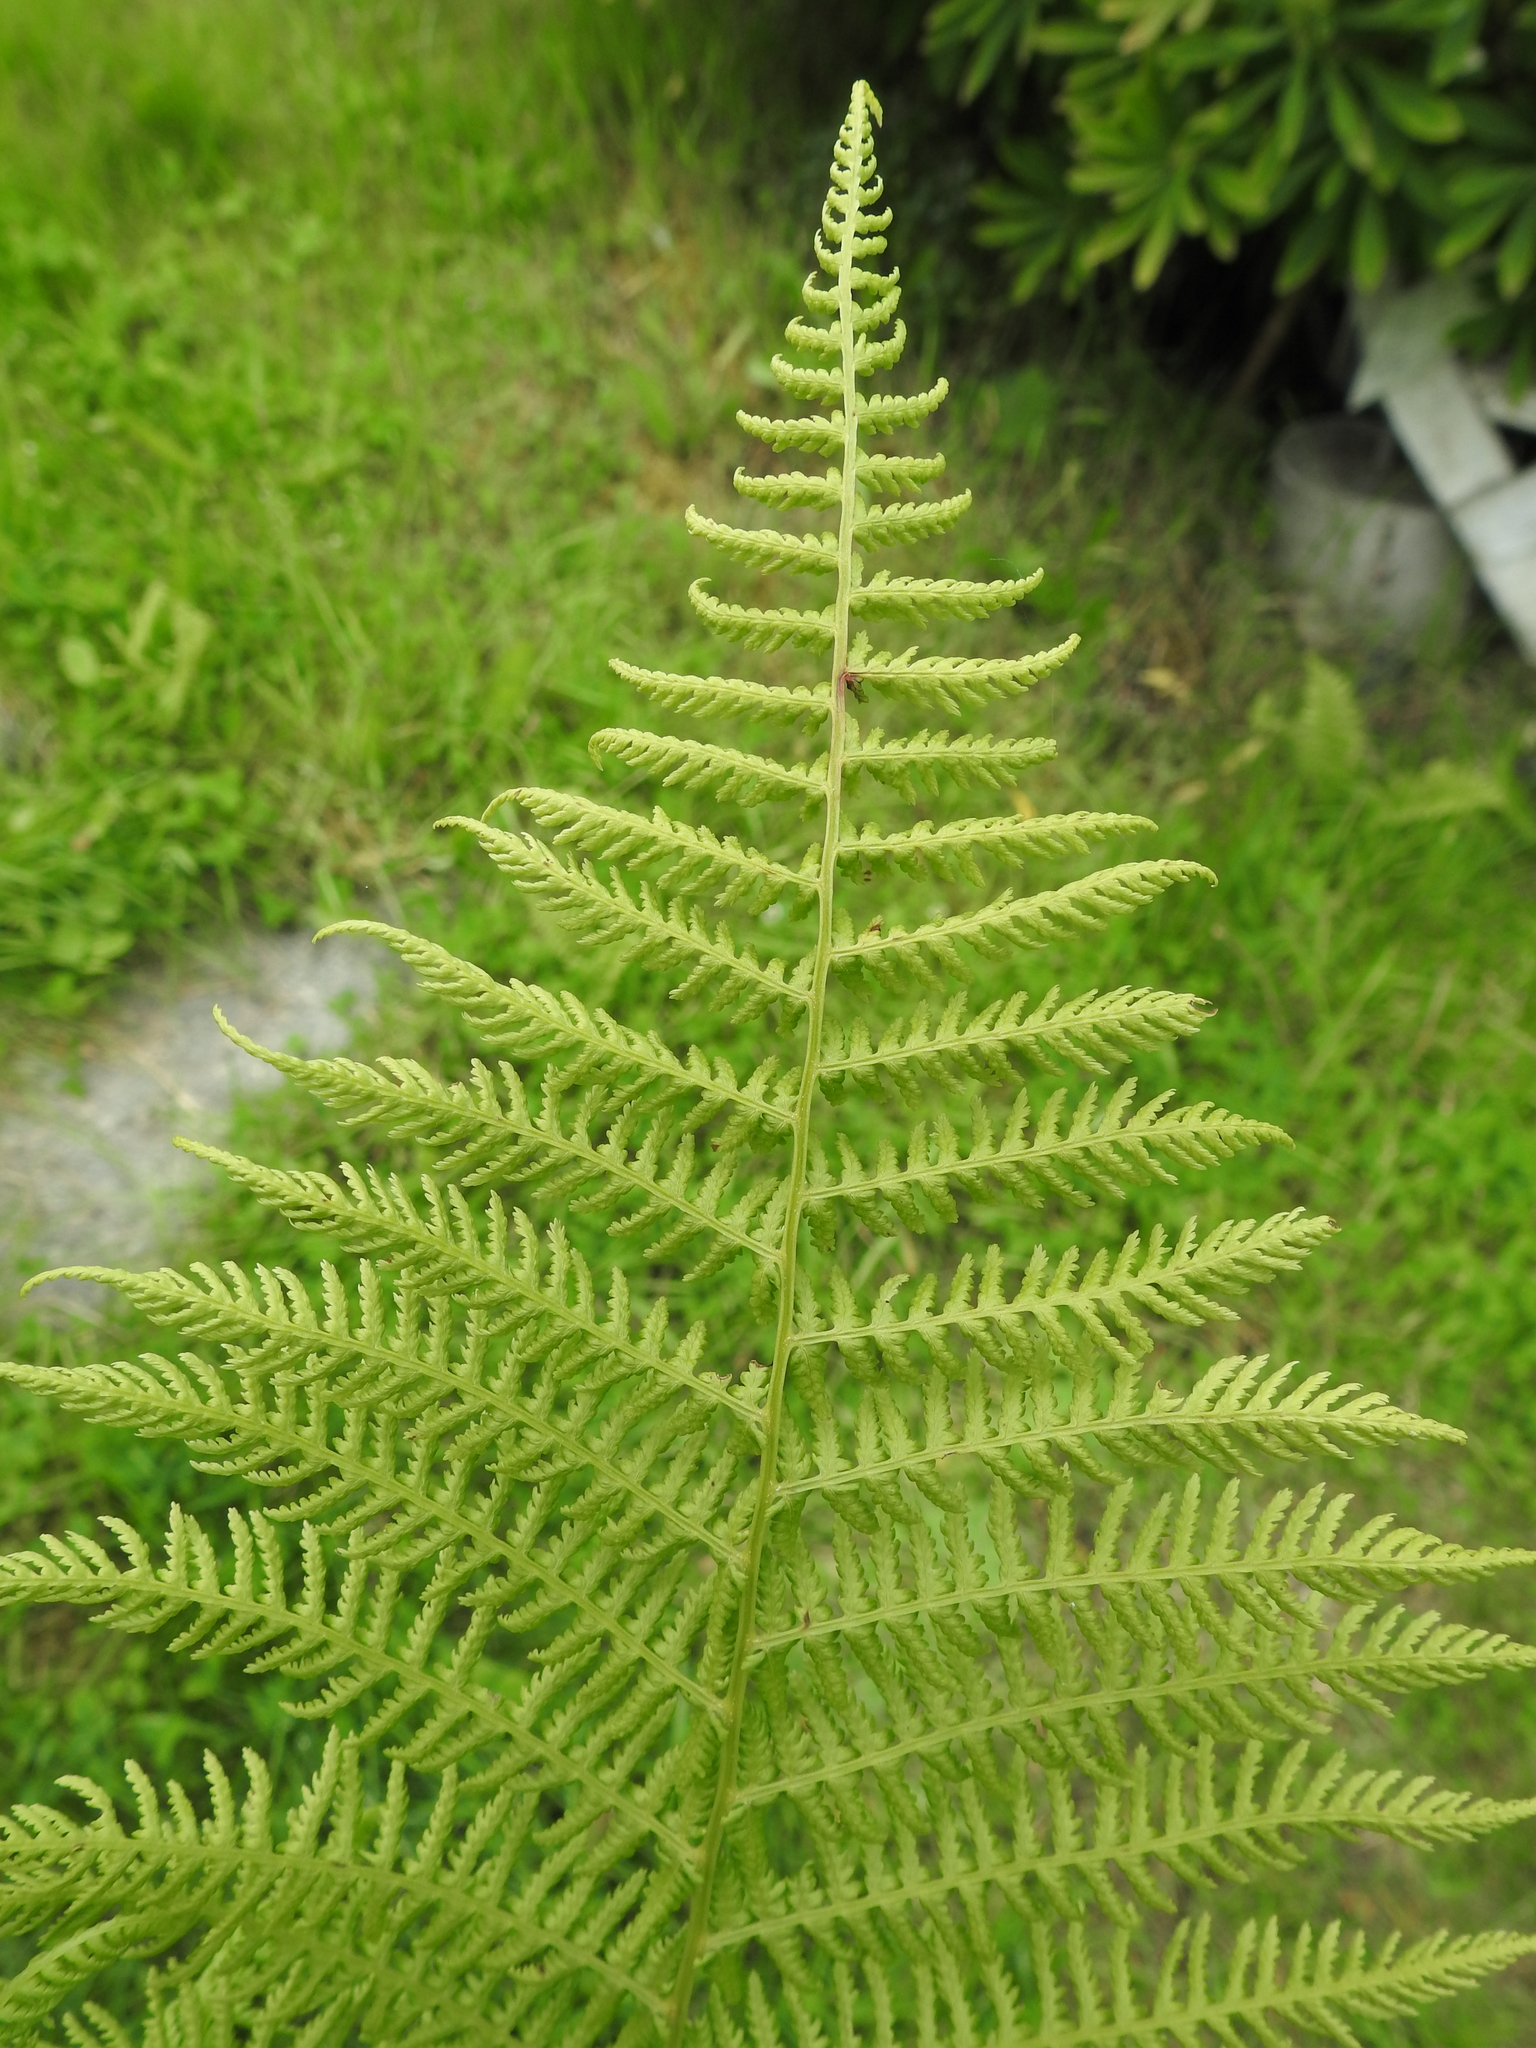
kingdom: Plantae
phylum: Tracheophyta
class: Polypodiopsida
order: Polypodiales
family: Athyriaceae
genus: Athyrium
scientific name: Athyrium filix-femina
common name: Lady fern
